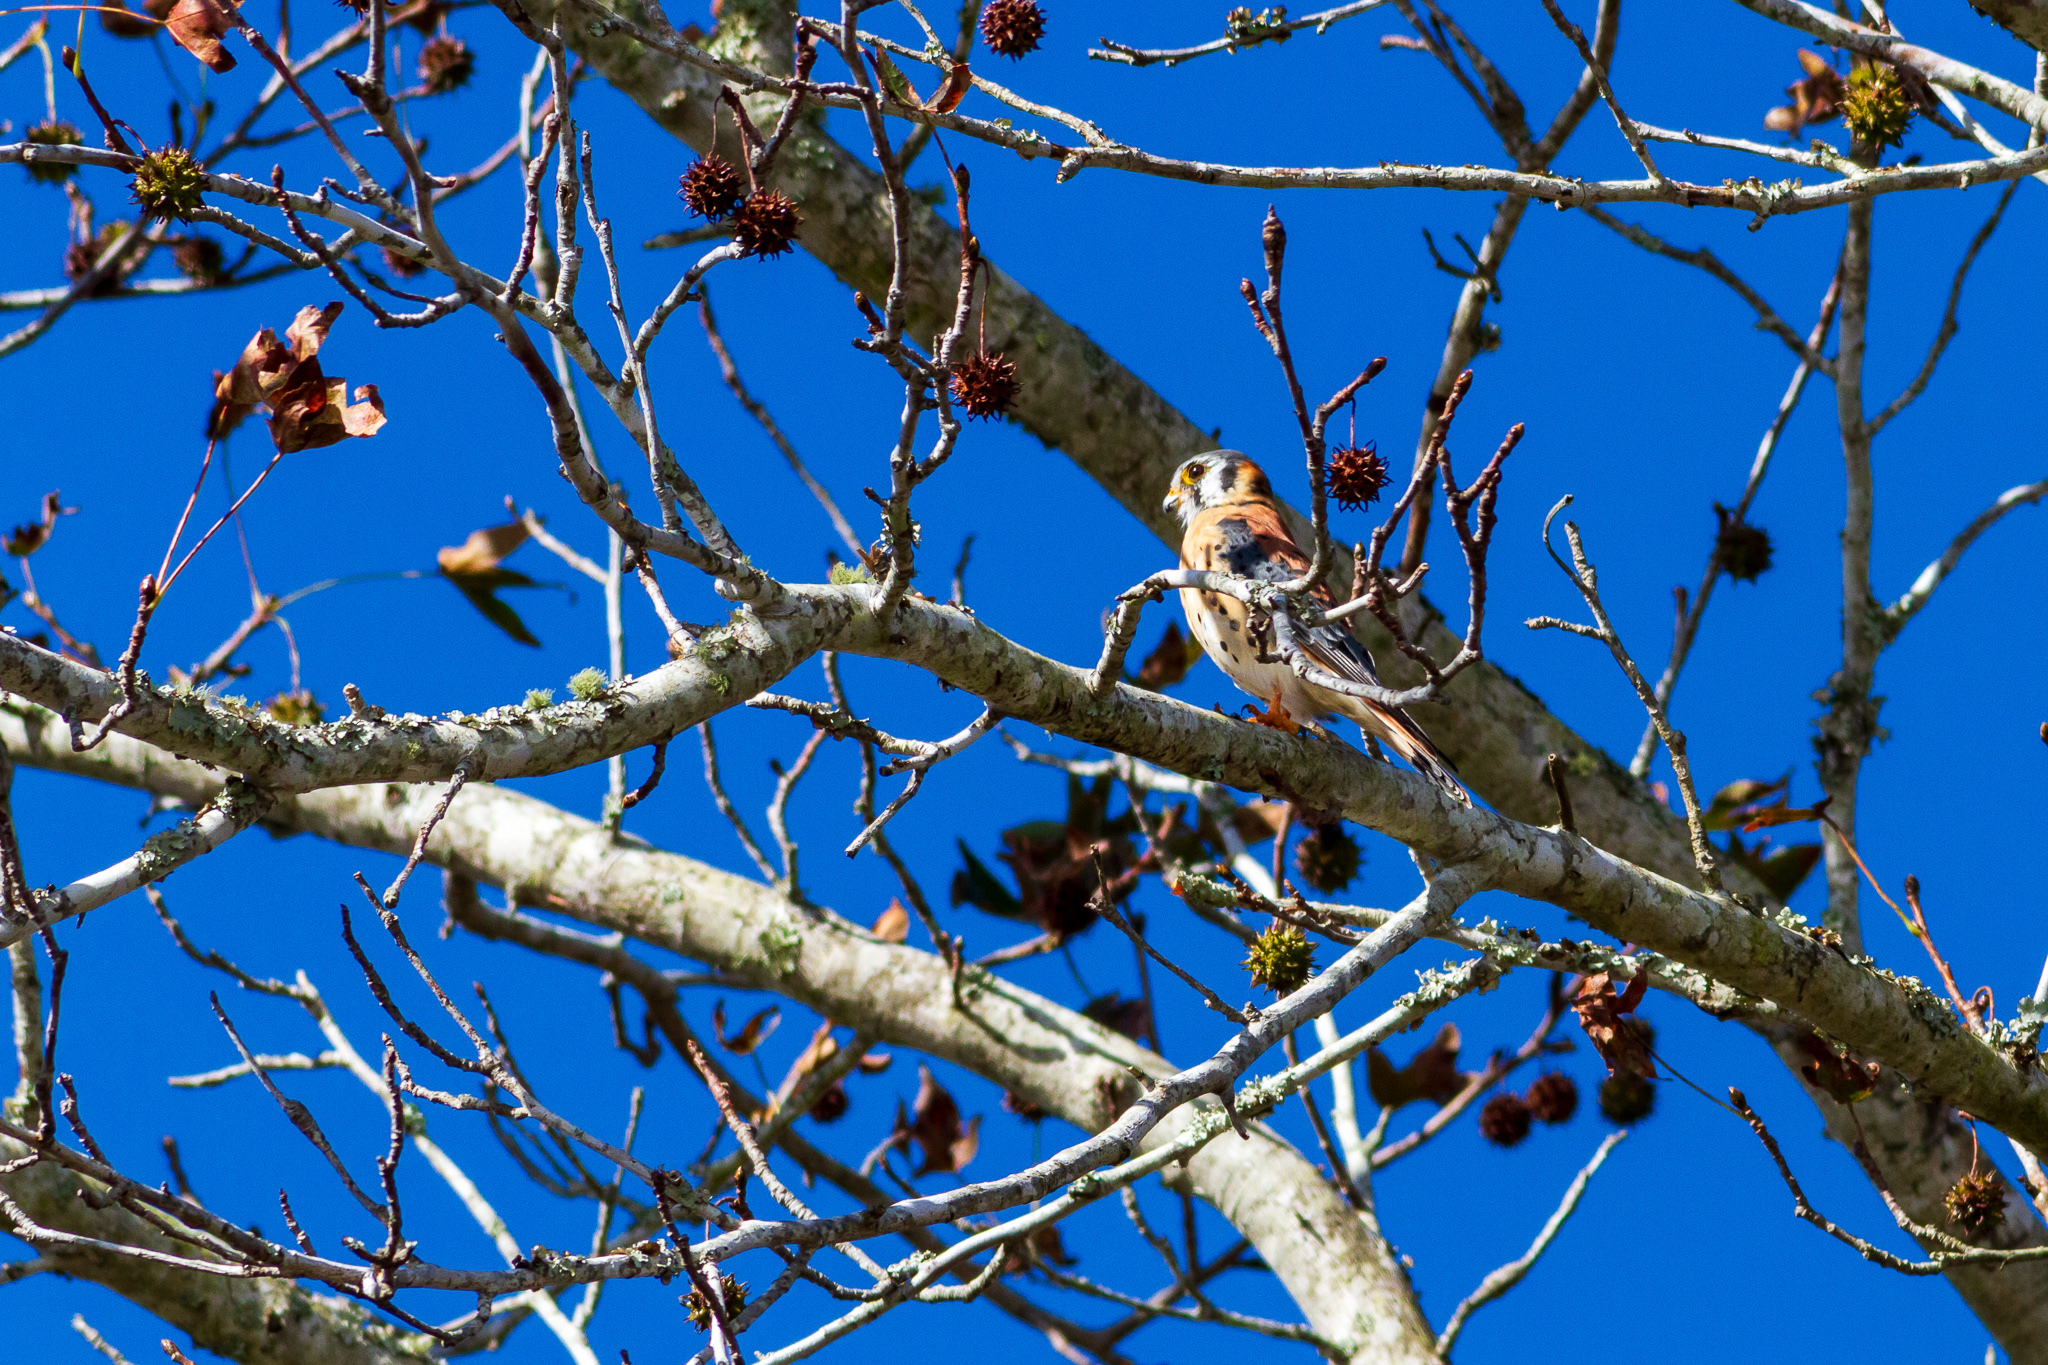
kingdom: Animalia
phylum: Chordata
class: Aves
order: Falconiformes
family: Falconidae
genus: Falco
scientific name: Falco sparverius
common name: American kestrel
